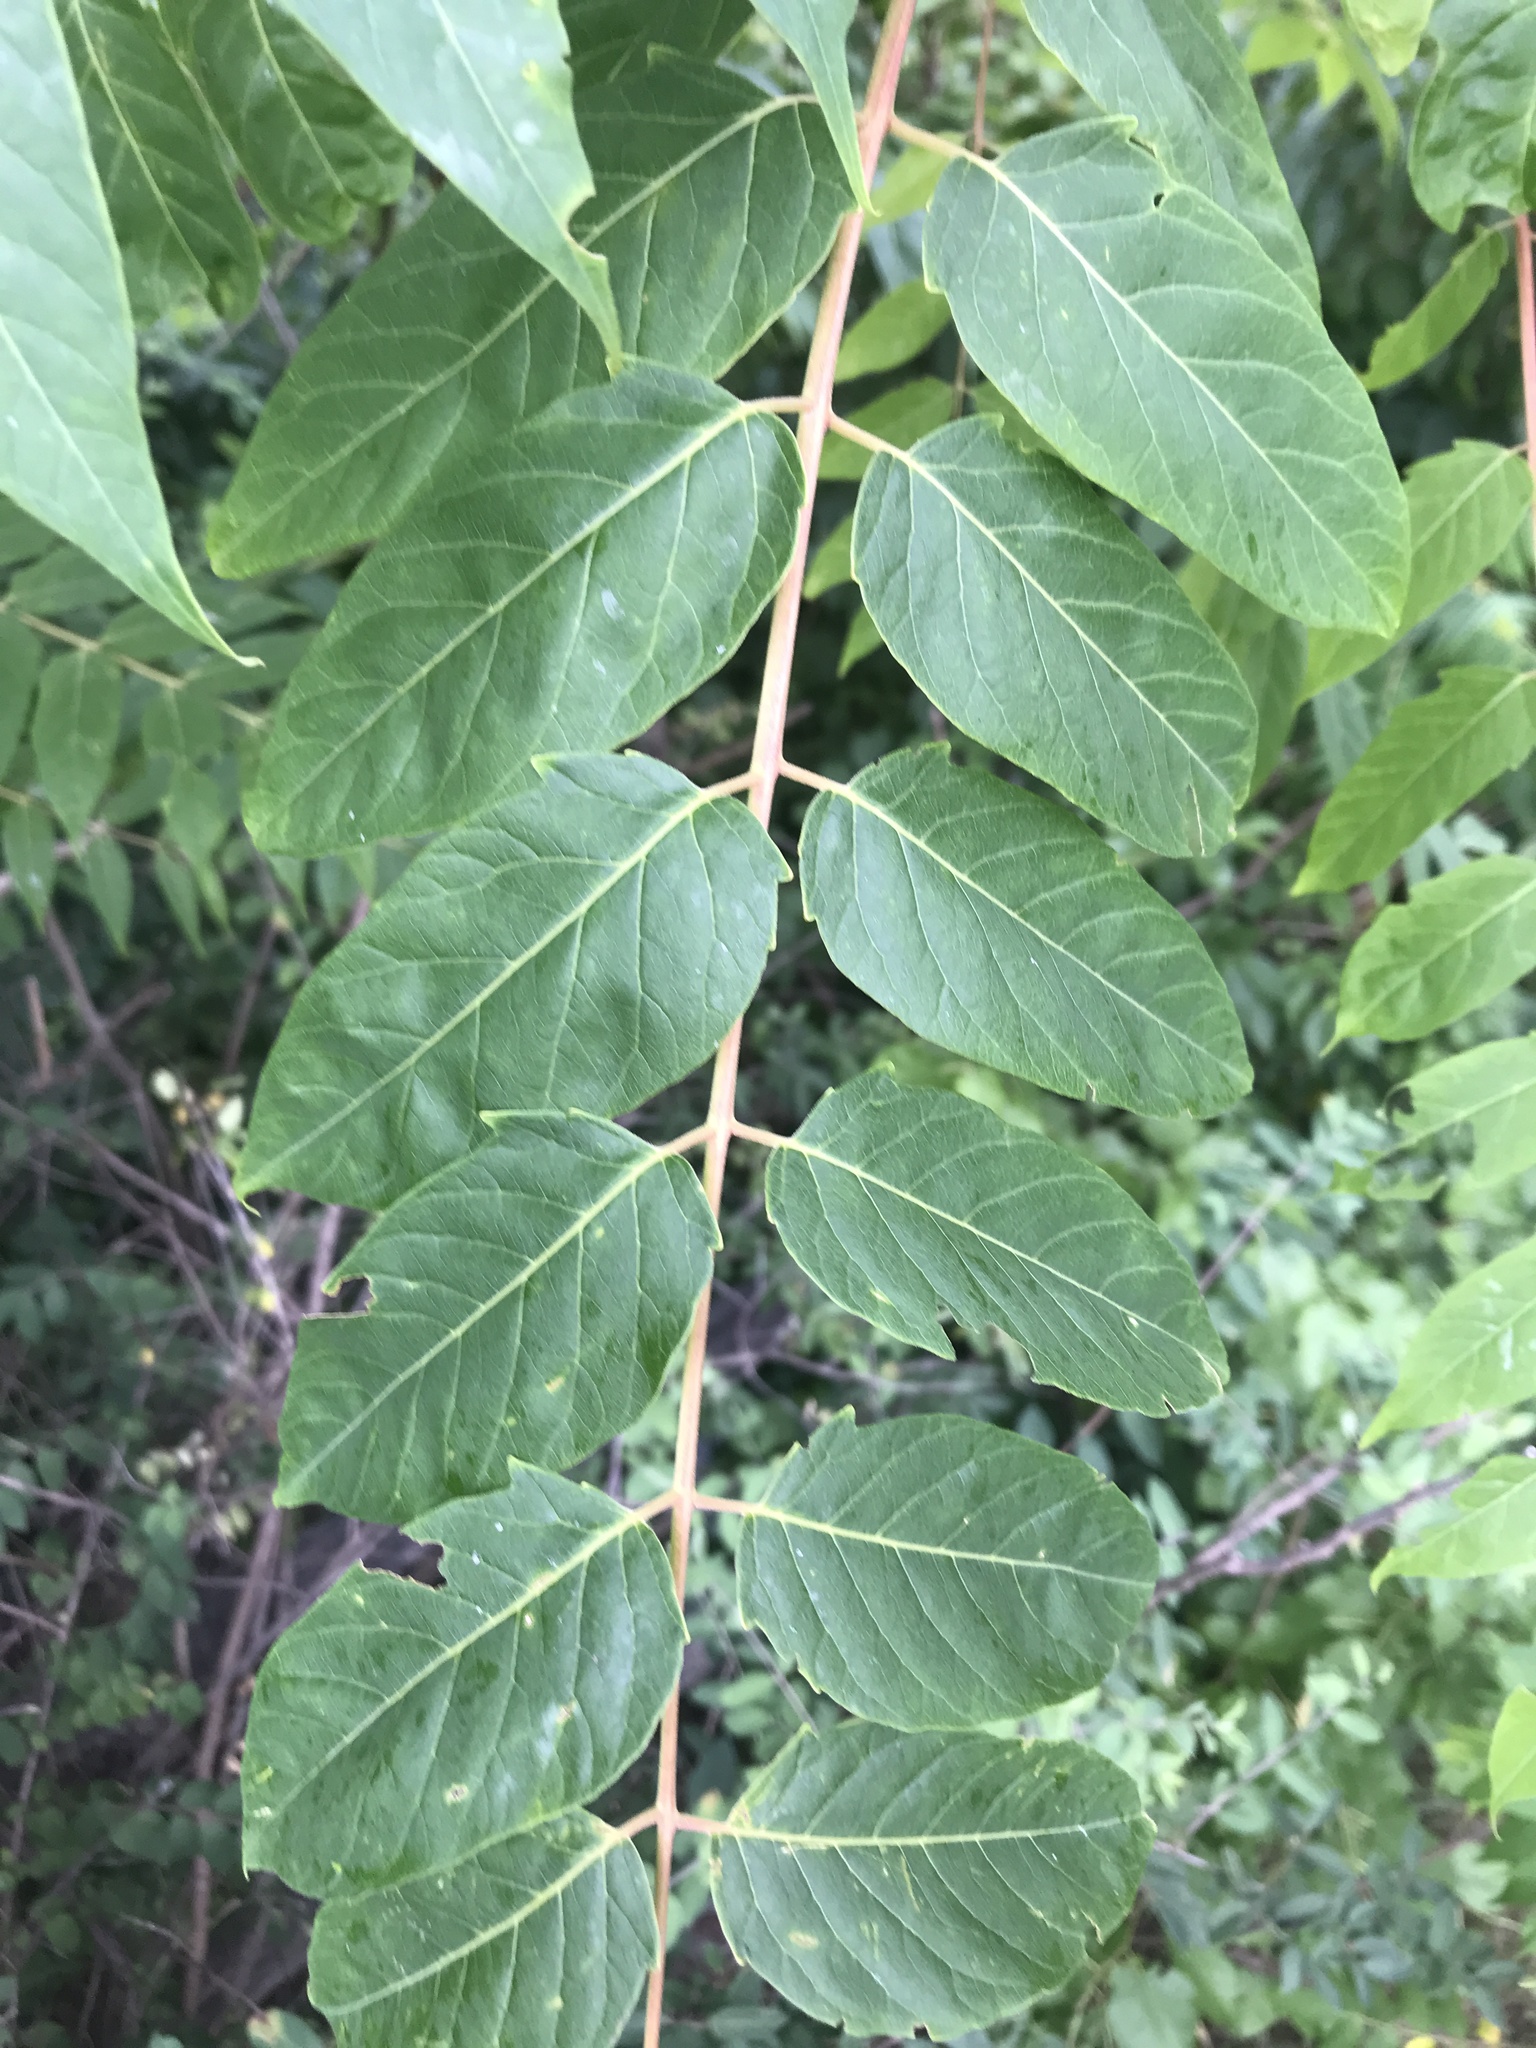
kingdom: Plantae
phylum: Tracheophyta
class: Magnoliopsida
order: Sapindales
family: Simaroubaceae
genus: Ailanthus
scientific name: Ailanthus altissima
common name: Tree-of-heaven
